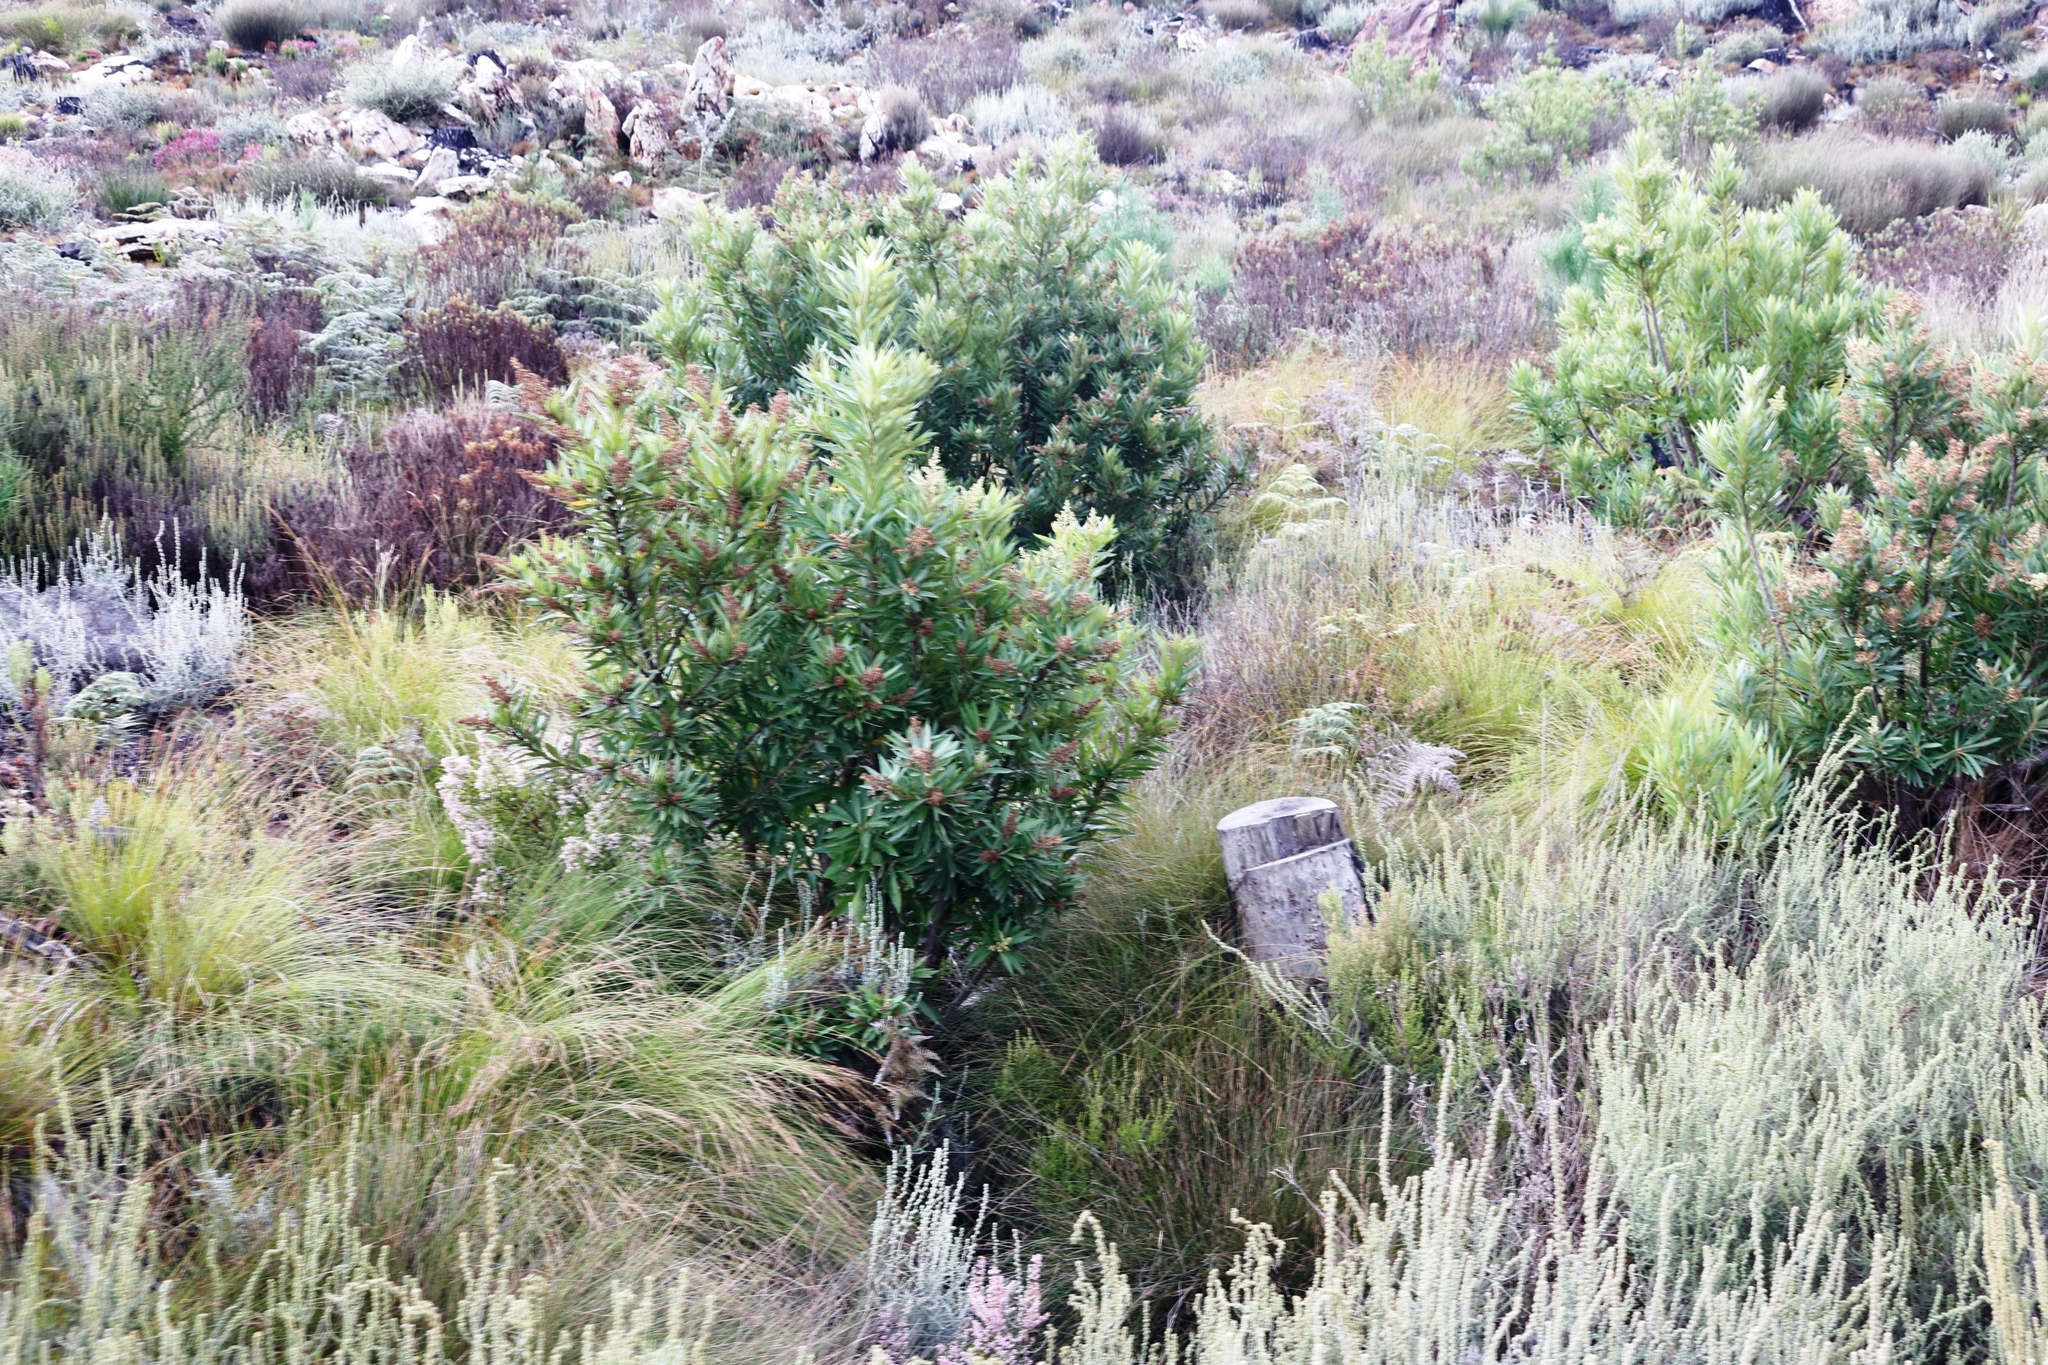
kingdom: Plantae
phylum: Tracheophyta
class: Magnoliopsida
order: Asterales
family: Asteraceae
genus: Brachylaena
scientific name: Brachylaena neriifolia
